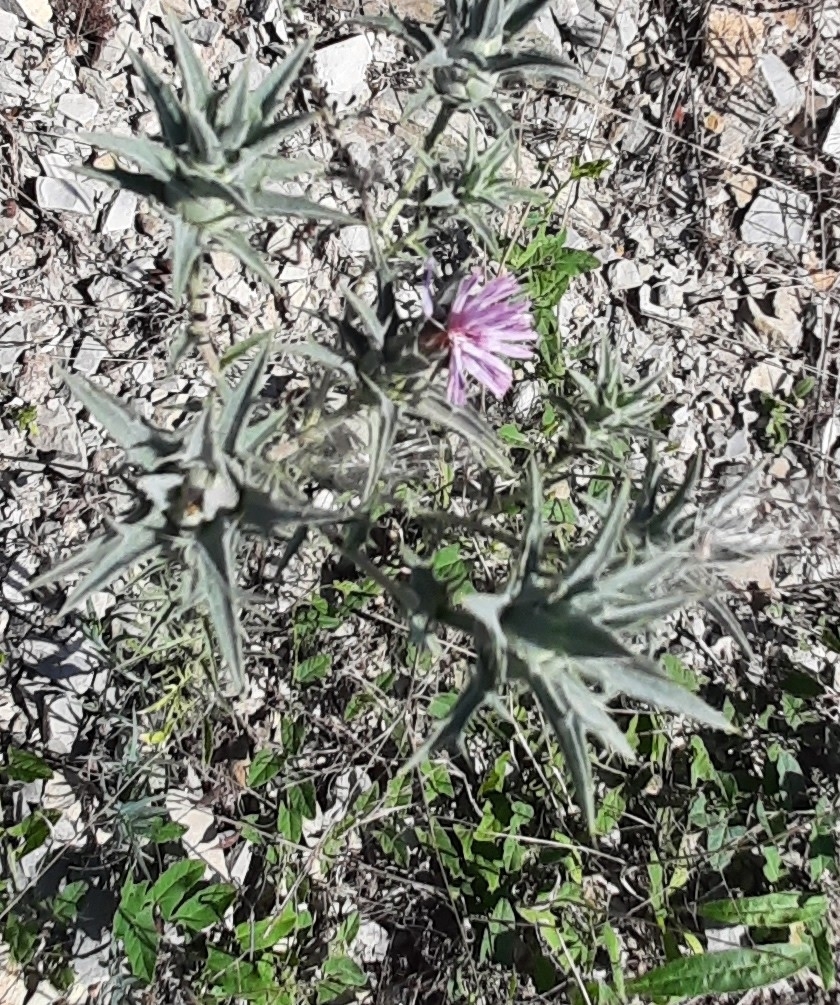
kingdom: Plantae
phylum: Tracheophyta
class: Magnoliopsida
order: Asterales
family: Asteraceae
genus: Carthamus
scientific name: Carthamus glaucus
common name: Mediterranean thistle
